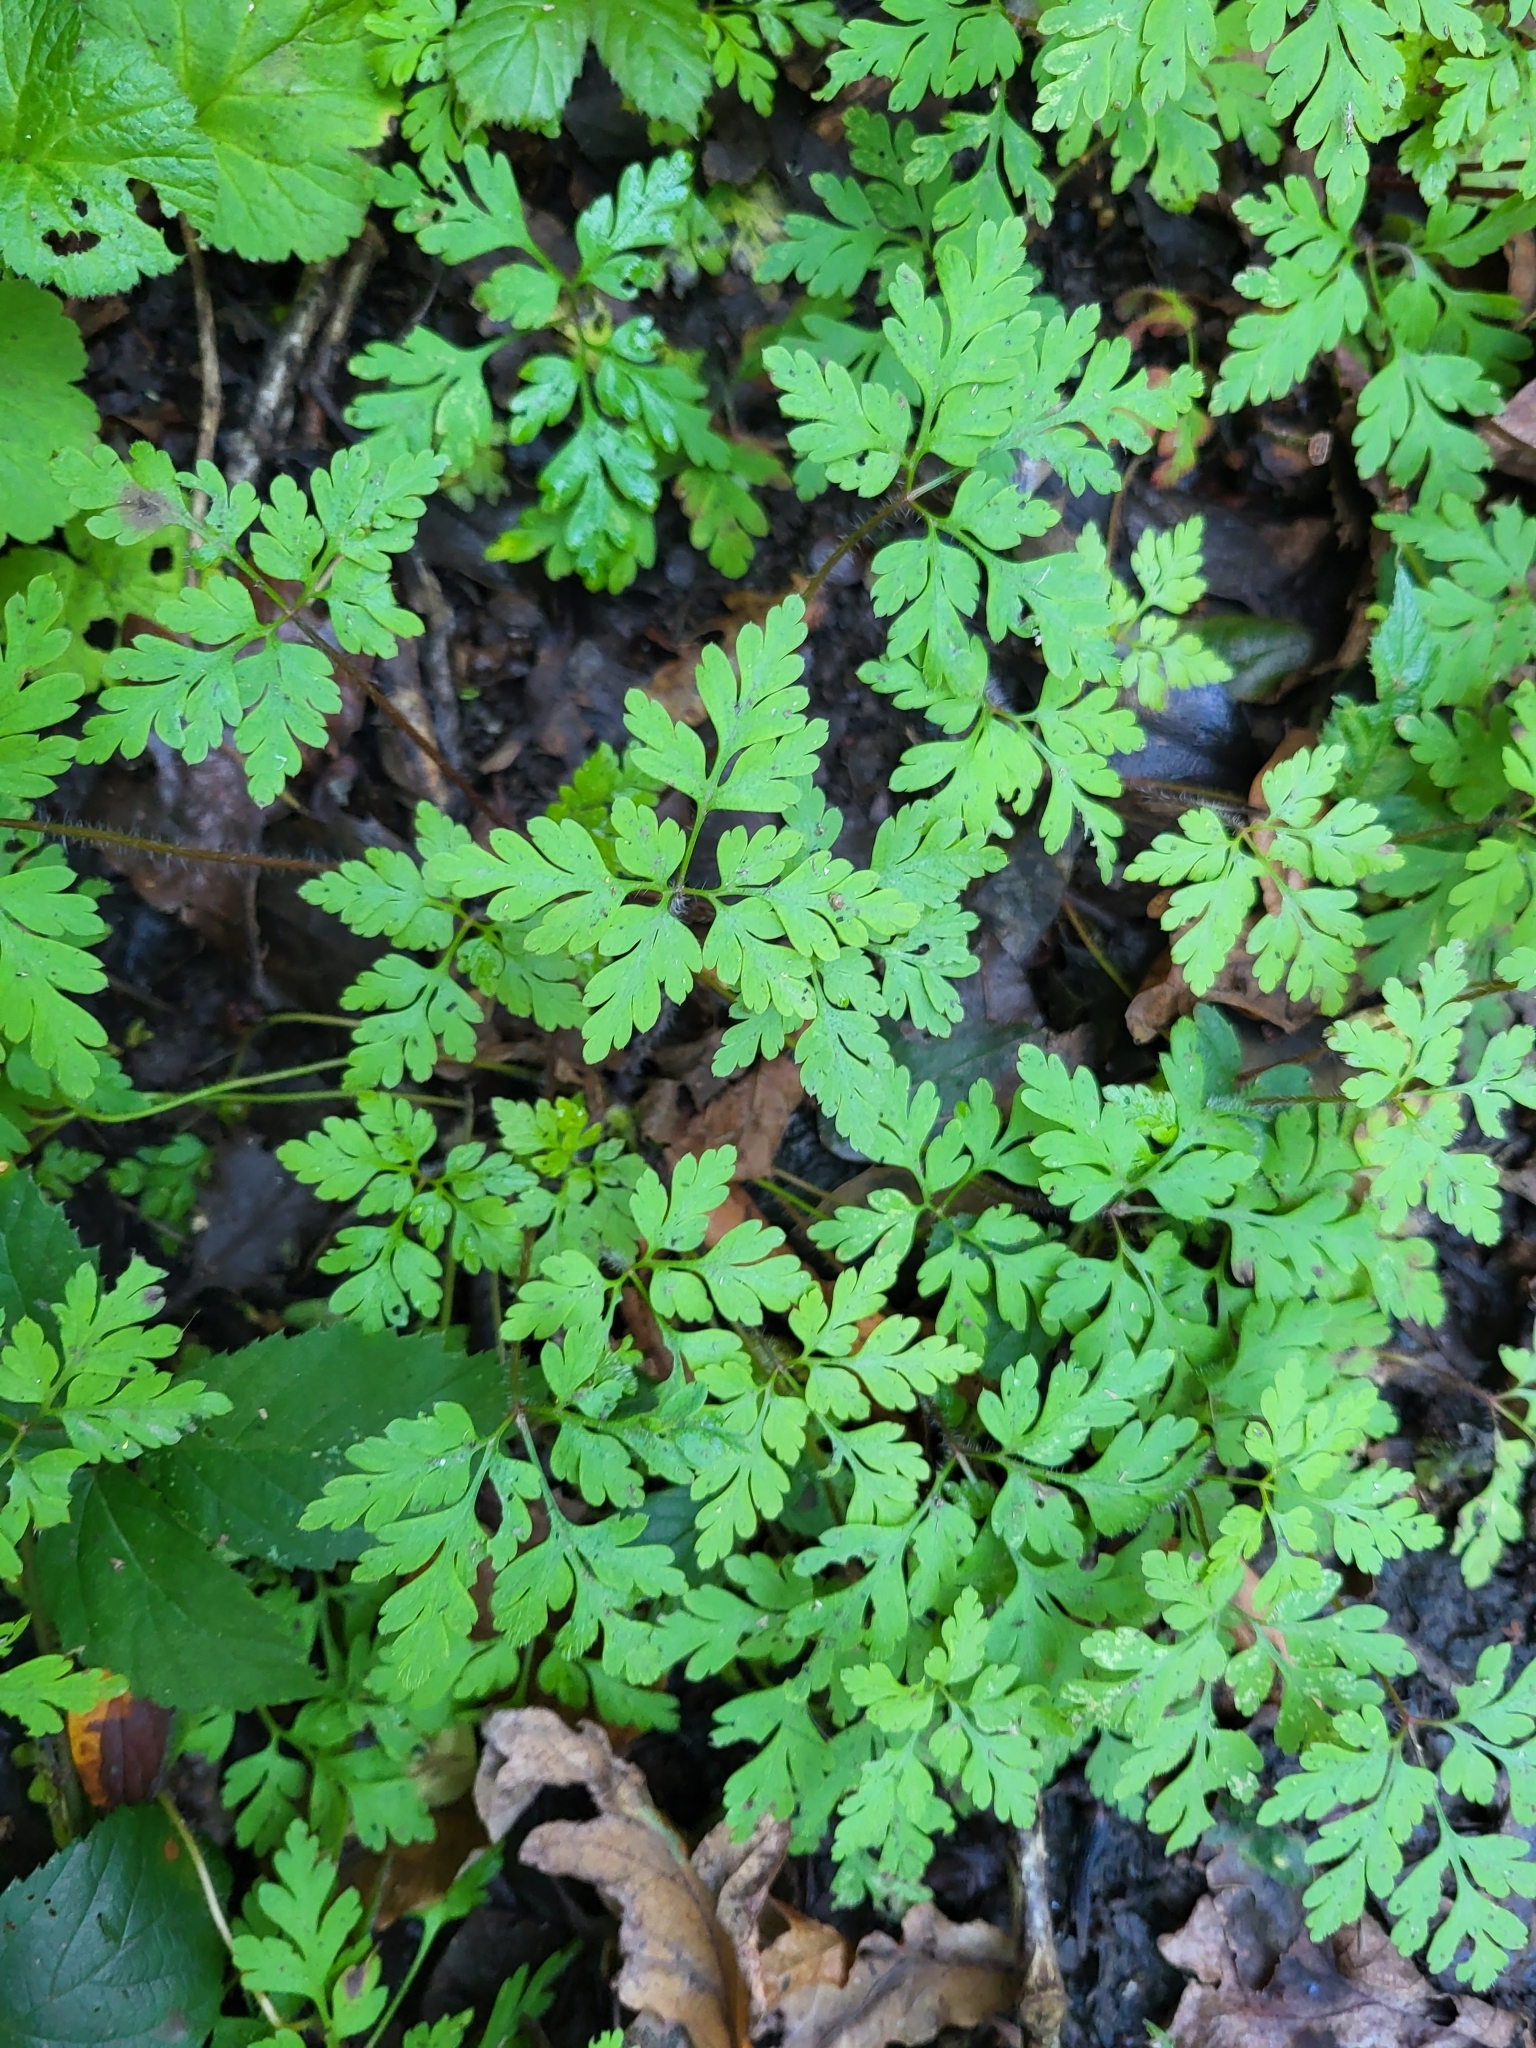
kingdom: Plantae
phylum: Tracheophyta
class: Magnoliopsida
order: Geraniales
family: Geraniaceae
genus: Geranium
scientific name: Geranium robertianum
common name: Herb-robert
